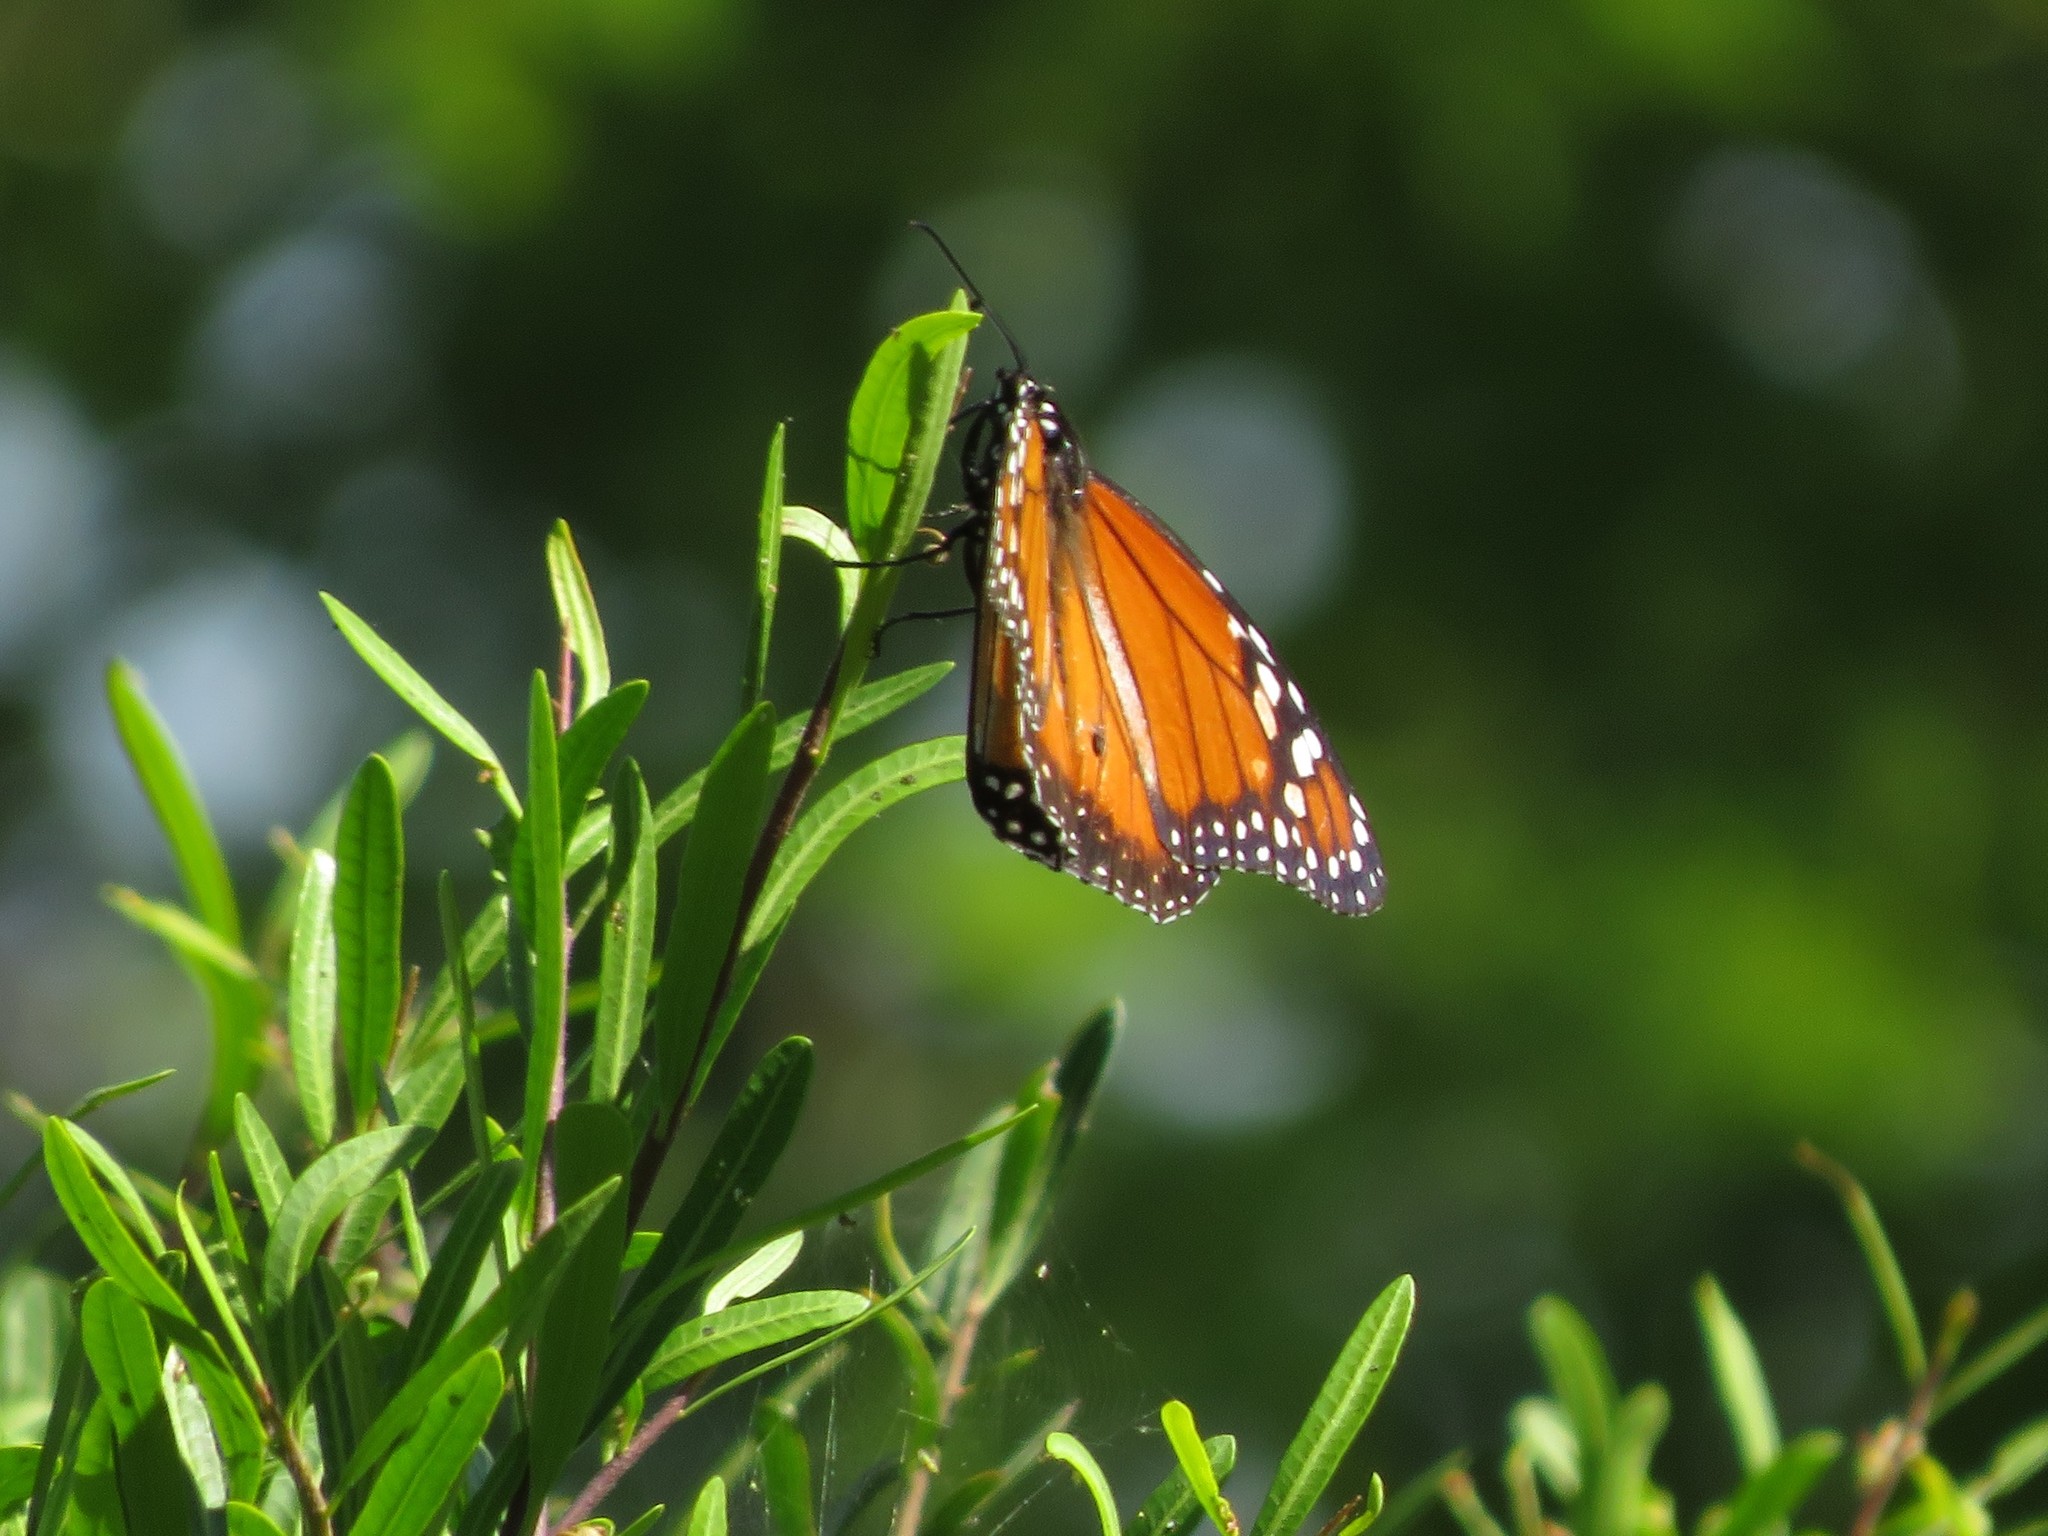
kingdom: Animalia
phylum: Arthropoda
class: Insecta
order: Lepidoptera
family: Nymphalidae
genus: Danaus
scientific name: Danaus erippus
